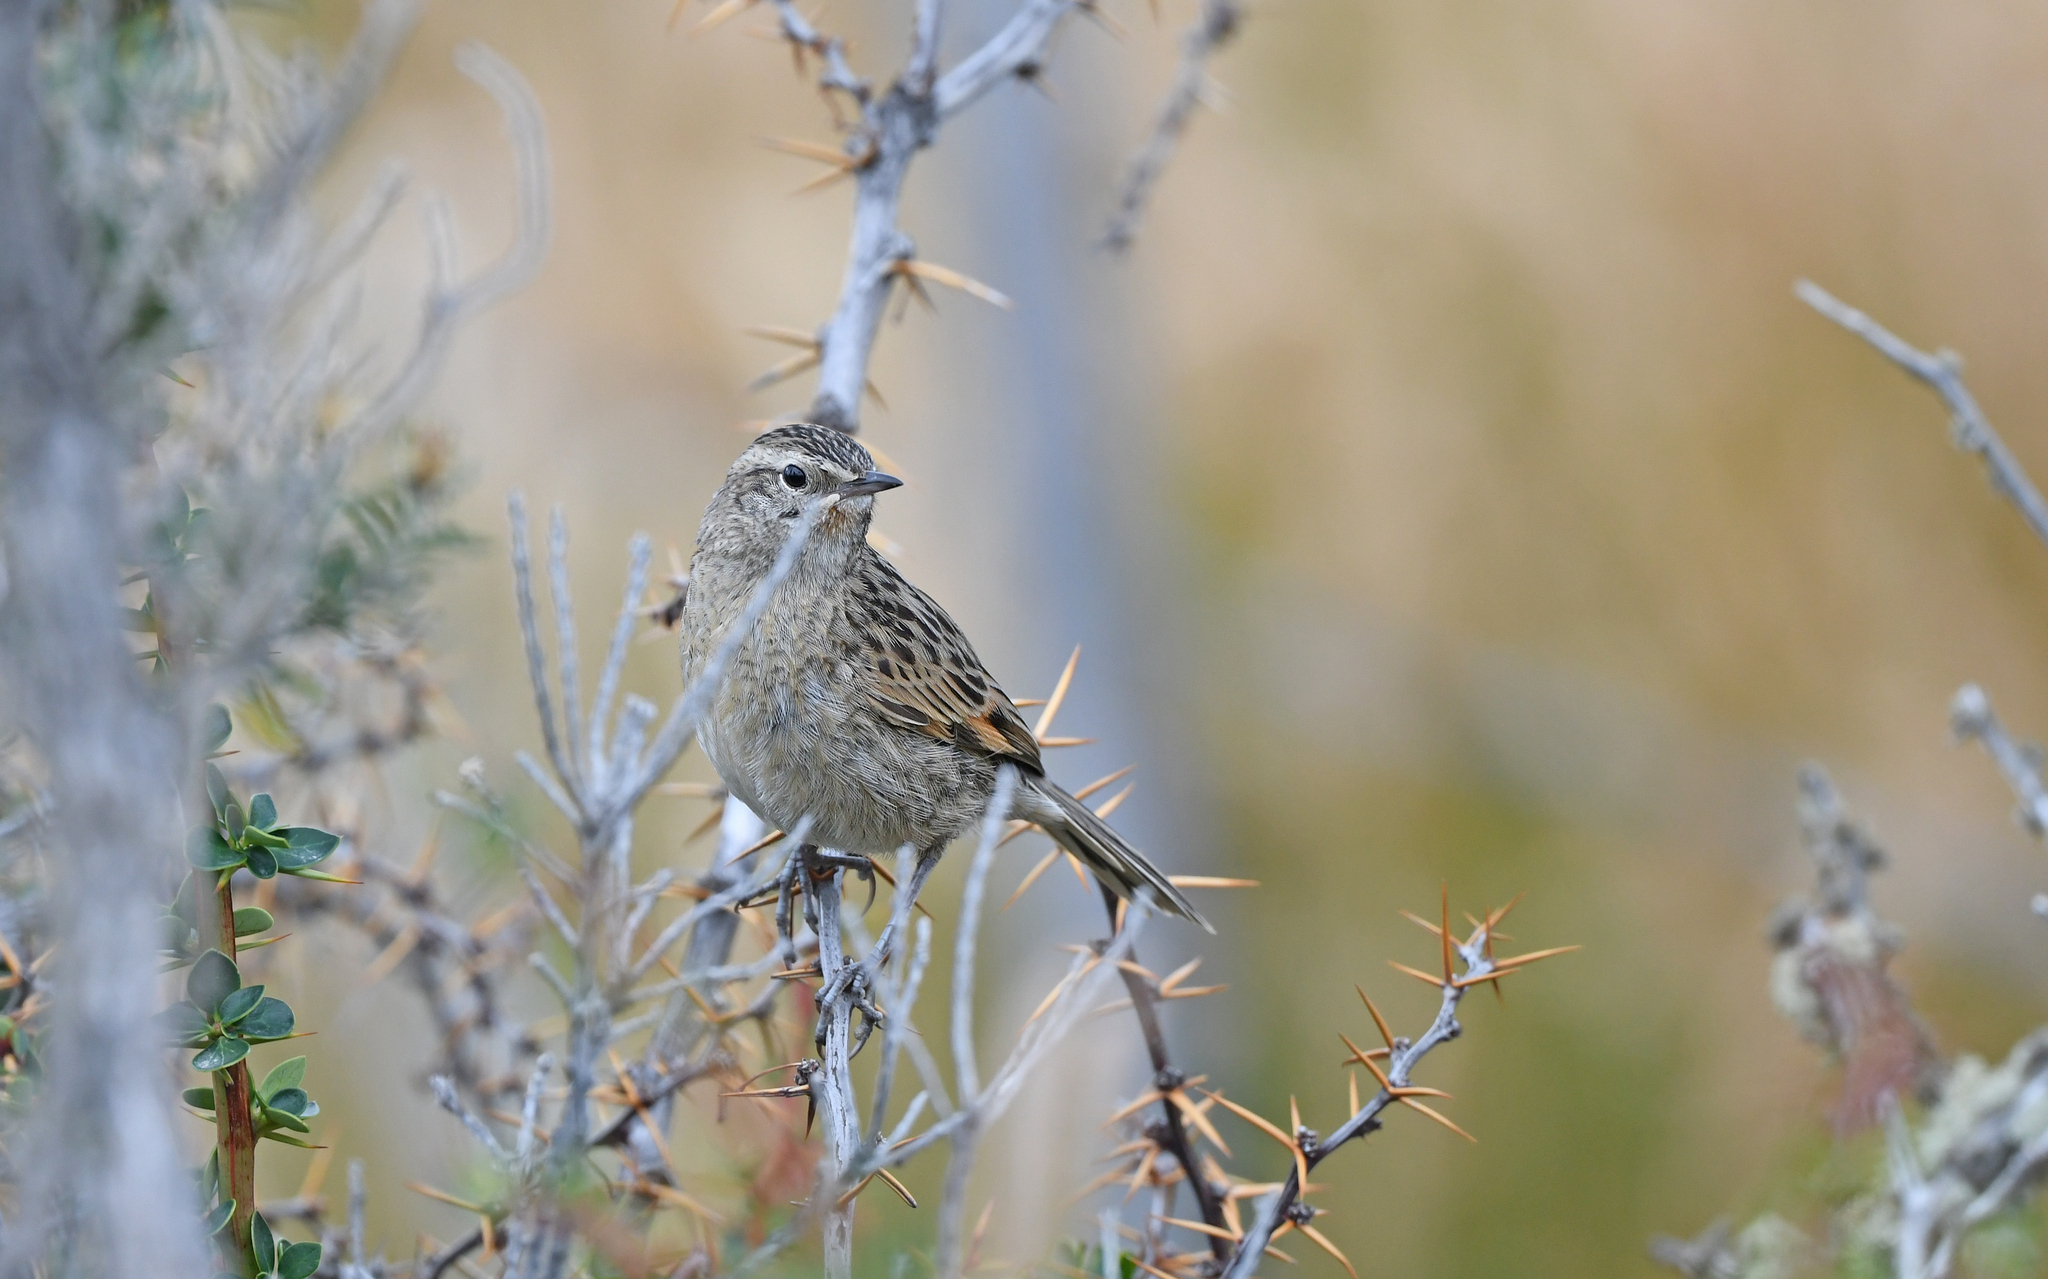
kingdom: Animalia
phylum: Chordata
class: Aves
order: Passeriformes
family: Furnariidae
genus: Asthenes
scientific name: Asthenes anthoides
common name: Austral canastero
